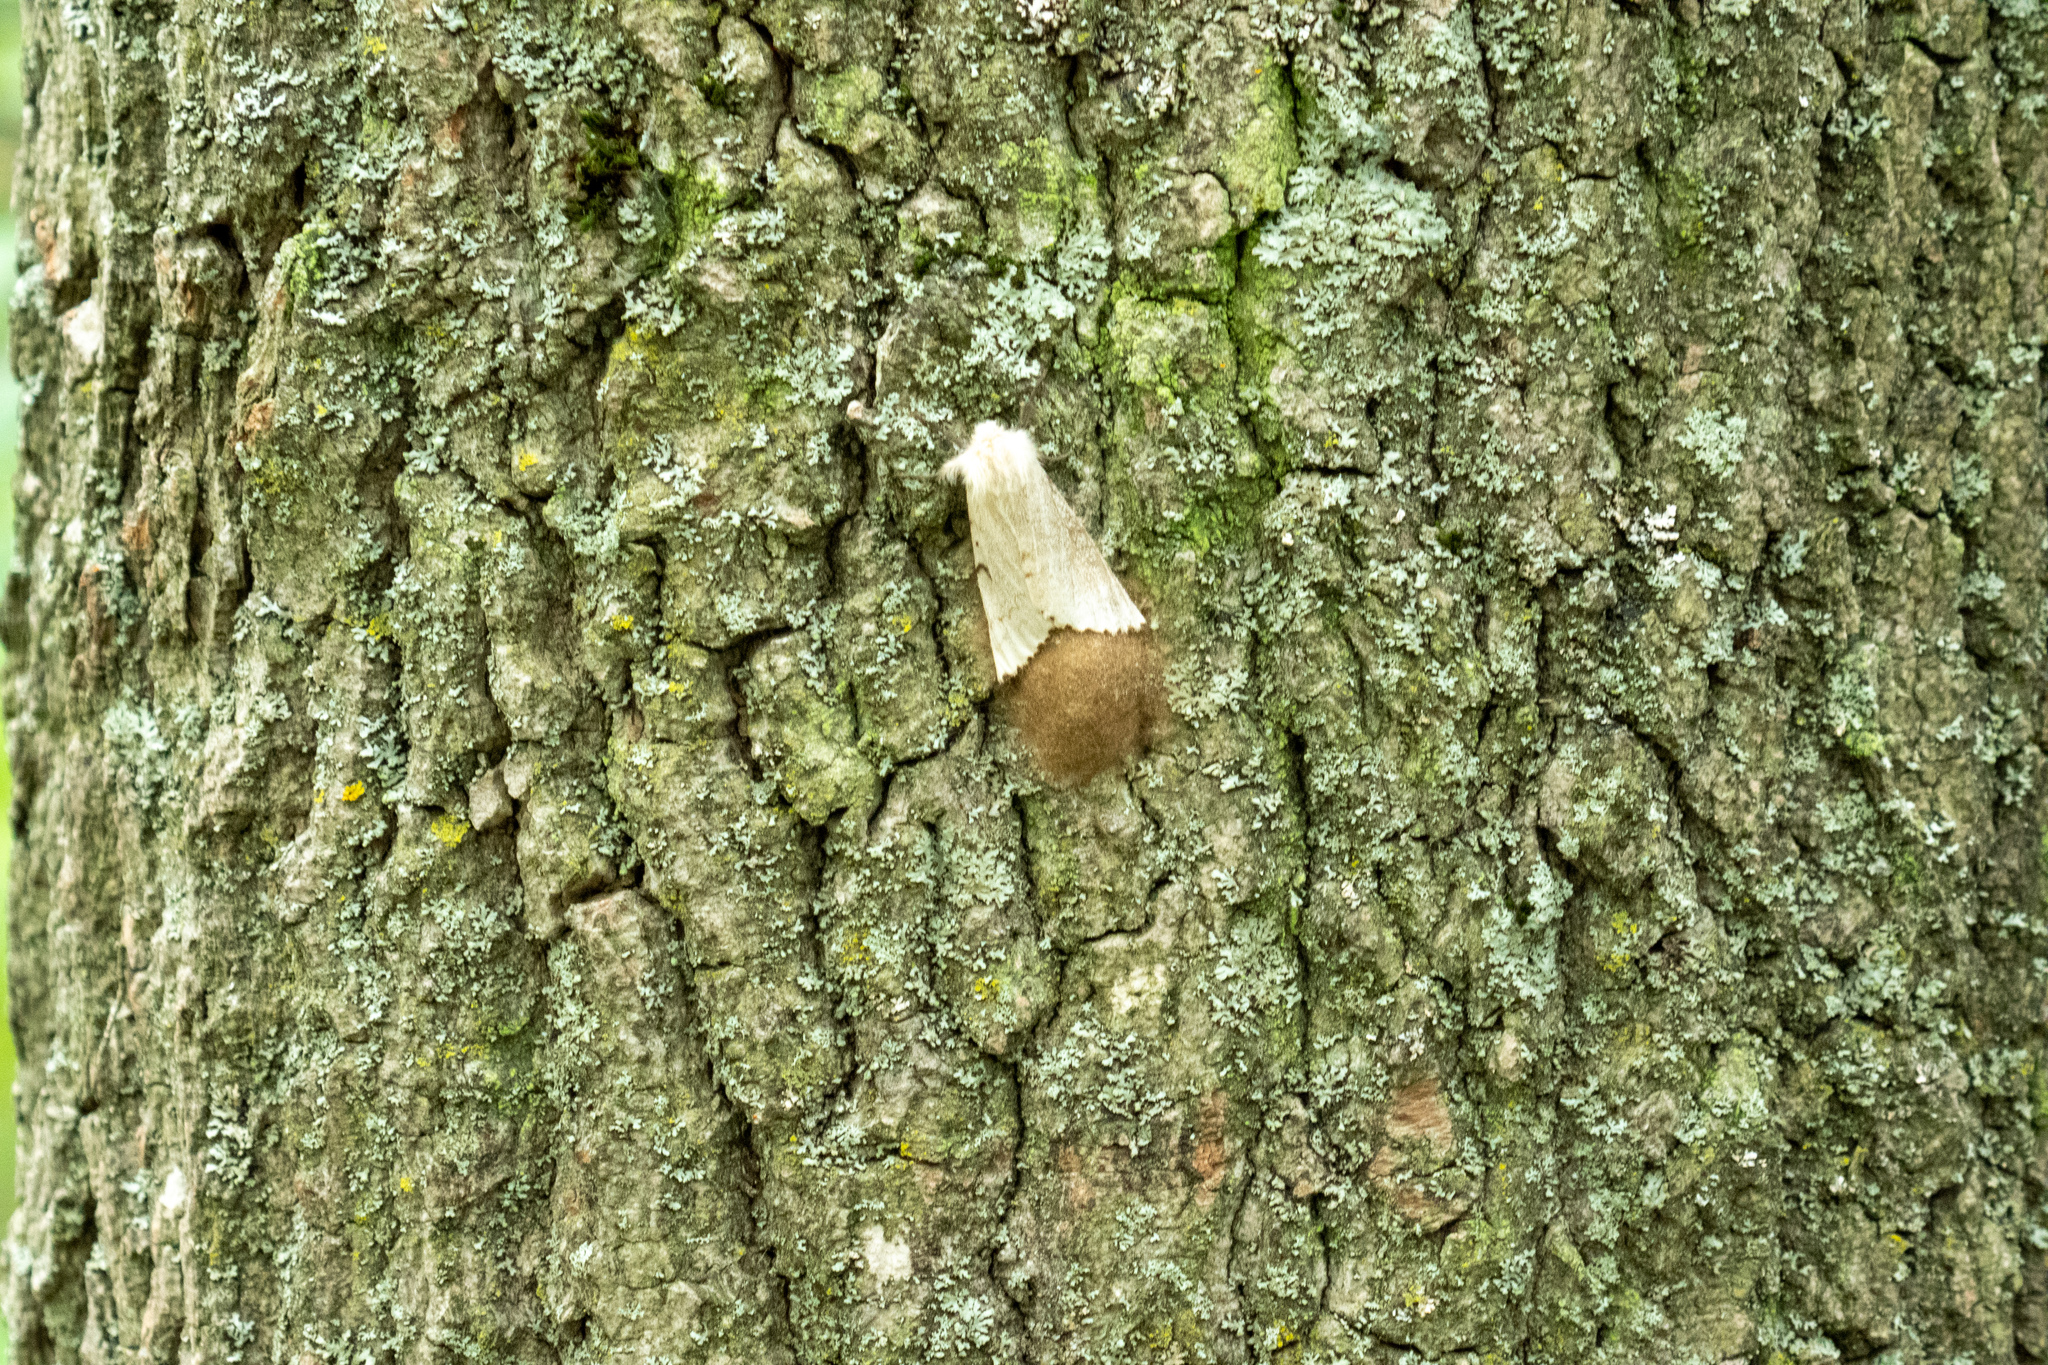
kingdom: Animalia
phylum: Arthropoda
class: Insecta
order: Lepidoptera
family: Erebidae
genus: Lymantria
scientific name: Lymantria dispar
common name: Gypsy moth
